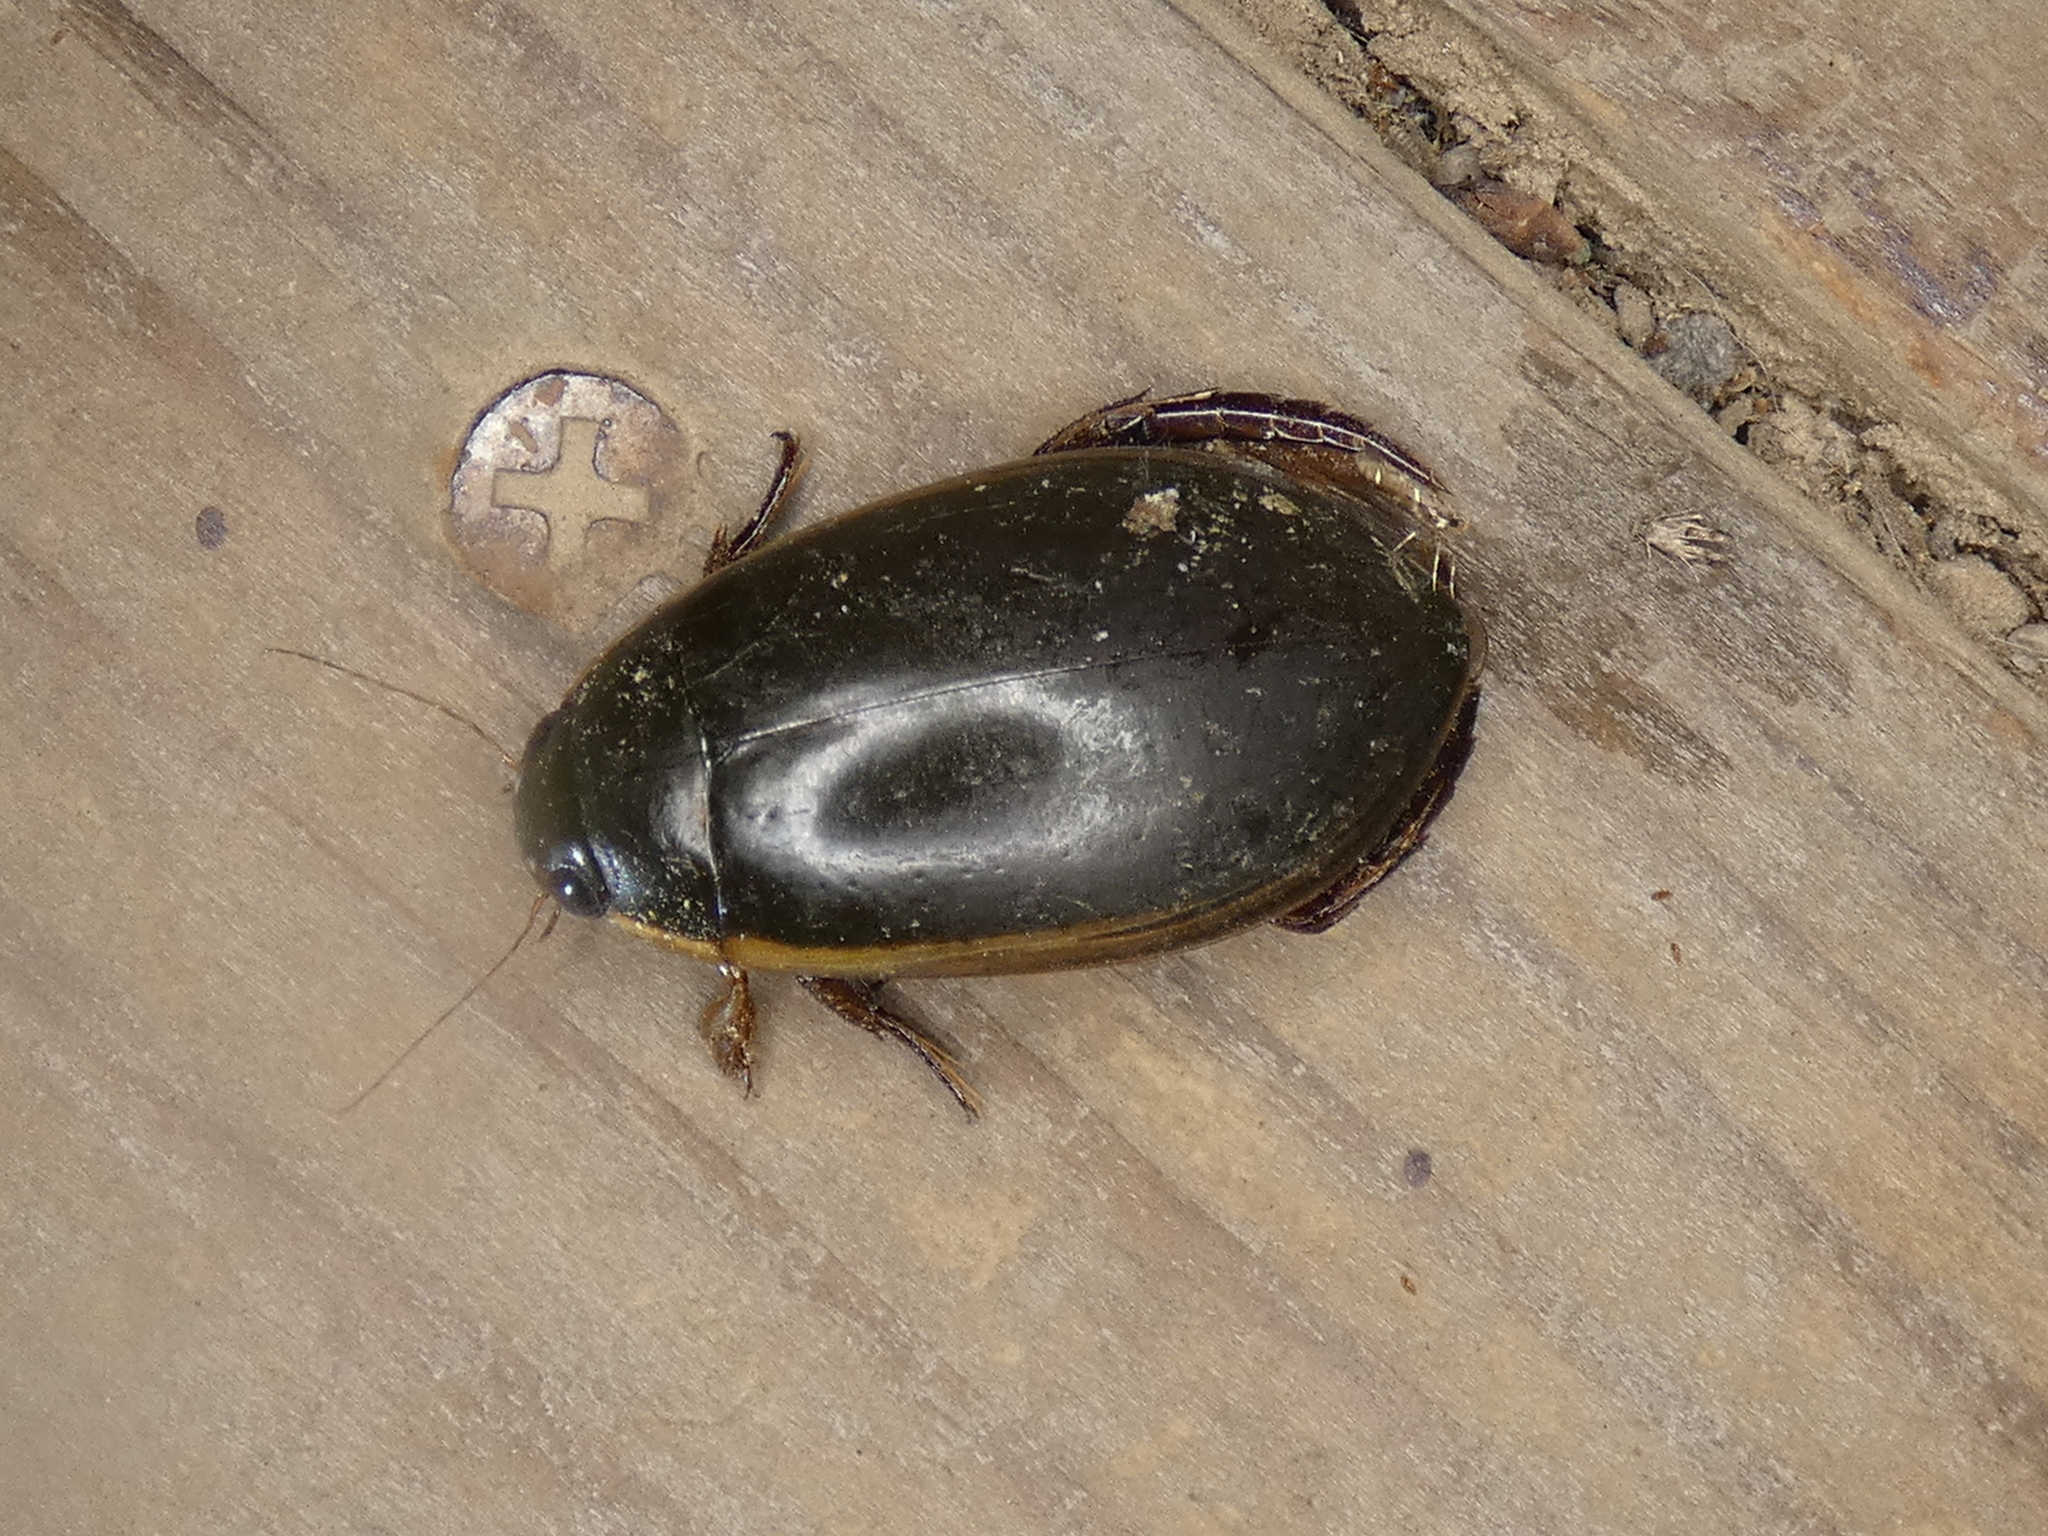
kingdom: Animalia
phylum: Arthropoda
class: Insecta
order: Coleoptera
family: Dytiscidae
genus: Cybister
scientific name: Cybister fimbriolatus
